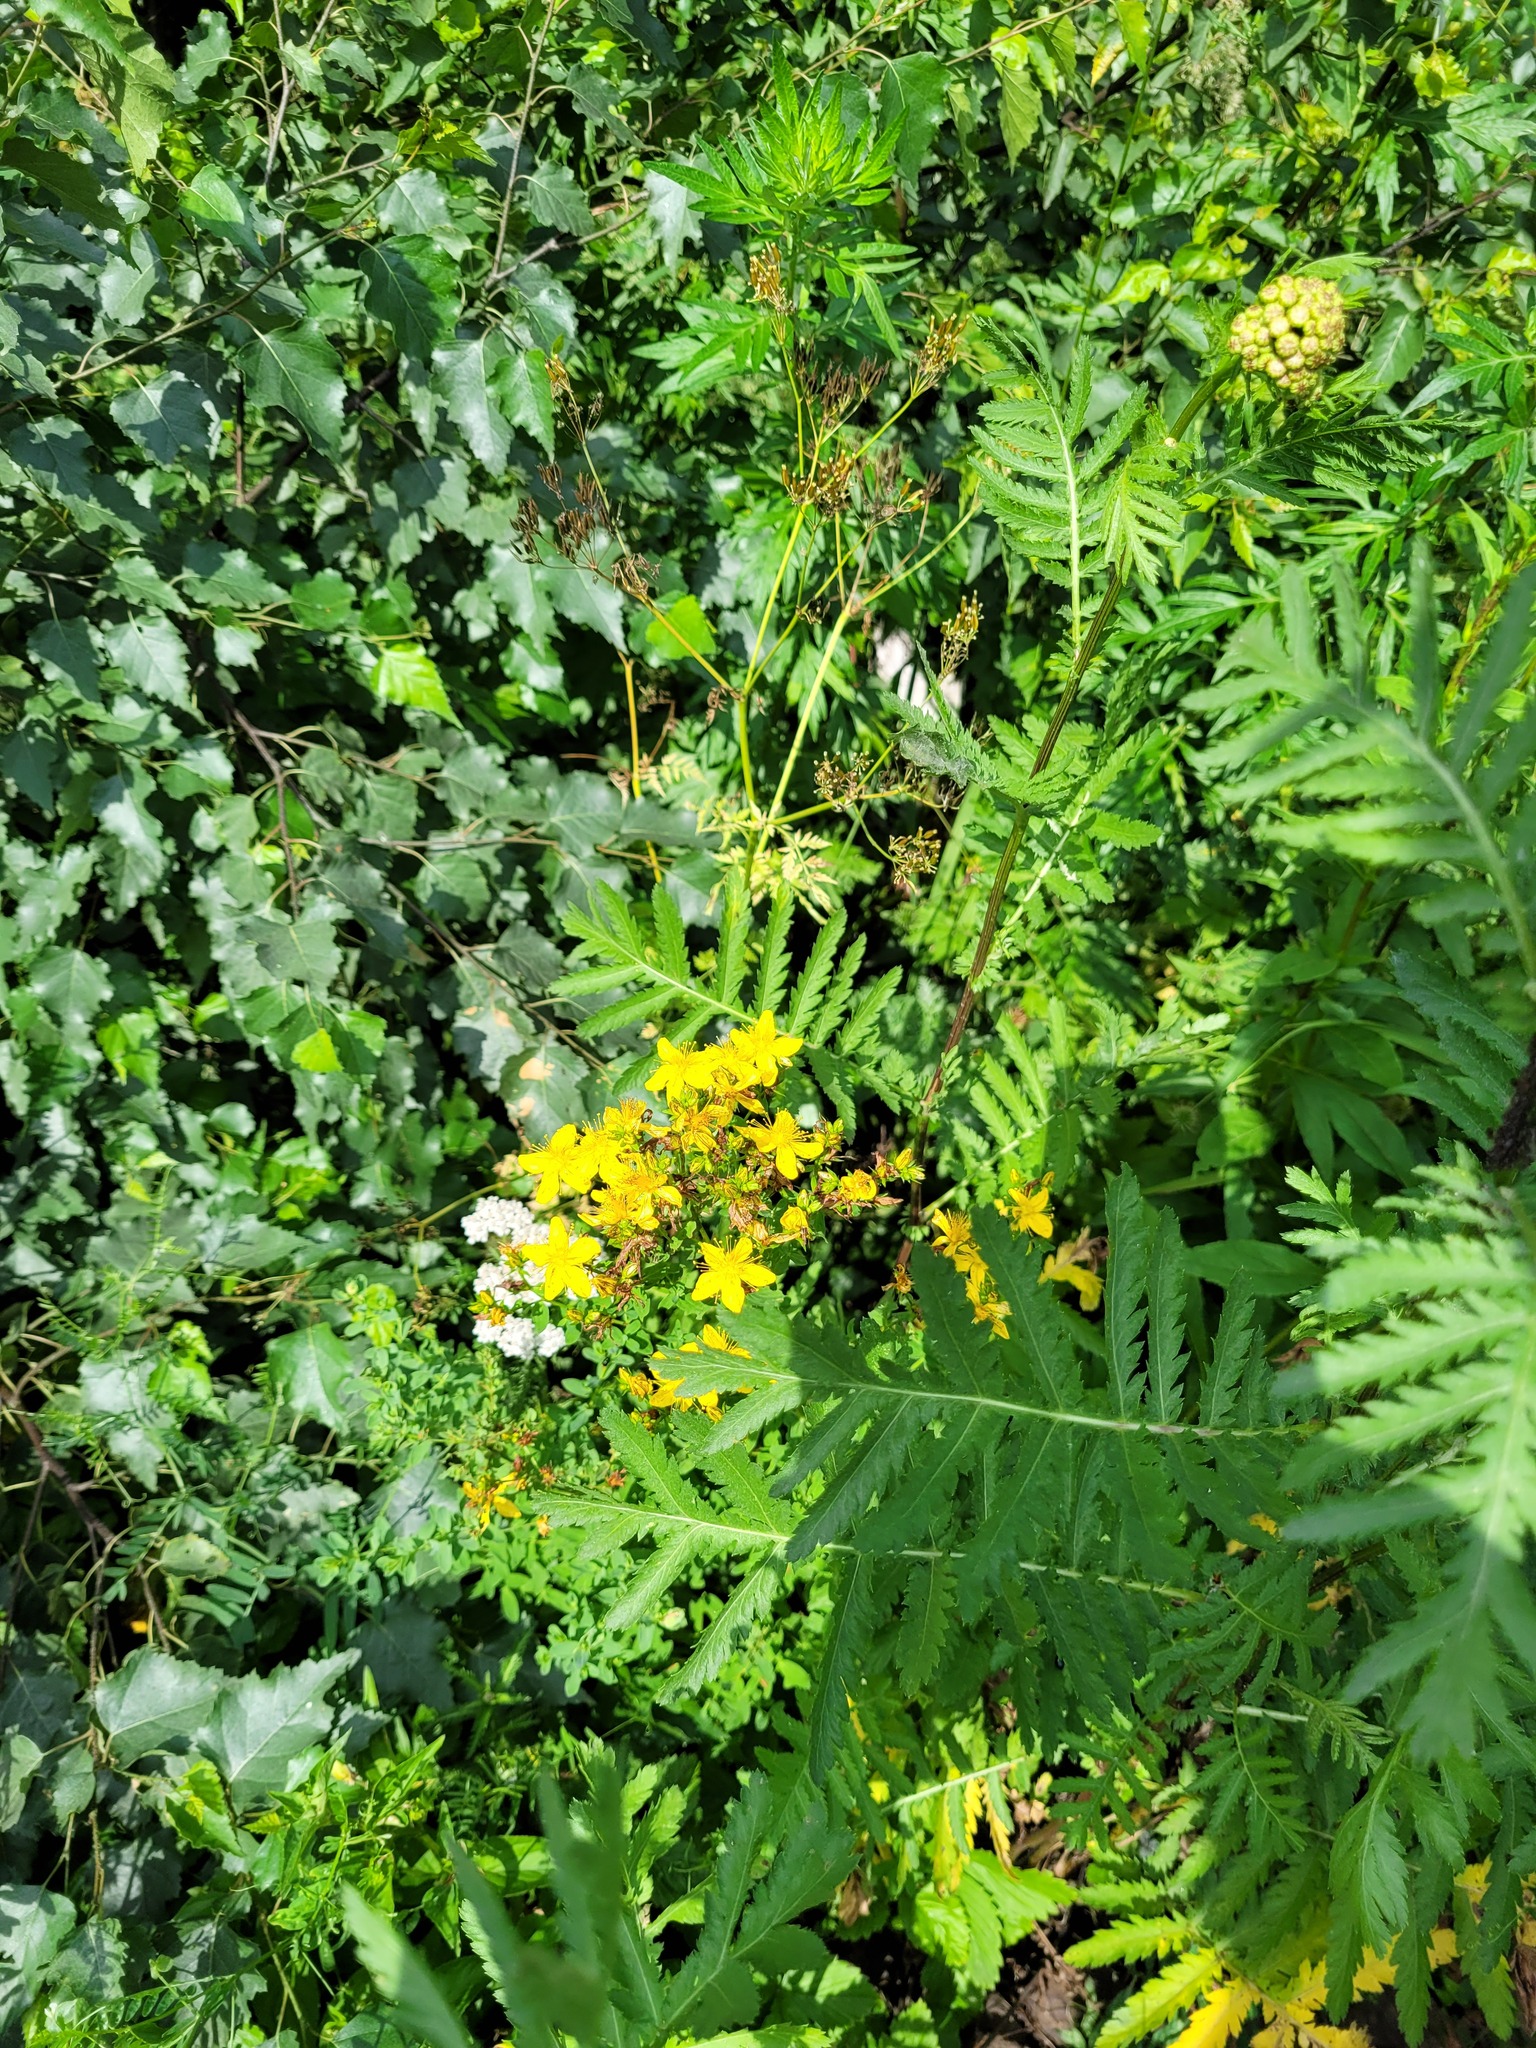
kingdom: Plantae
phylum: Tracheophyta
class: Magnoliopsida
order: Malpighiales
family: Hypericaceae
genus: Hypericum
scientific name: Hypericum perforatum
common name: Common st. johnswort
